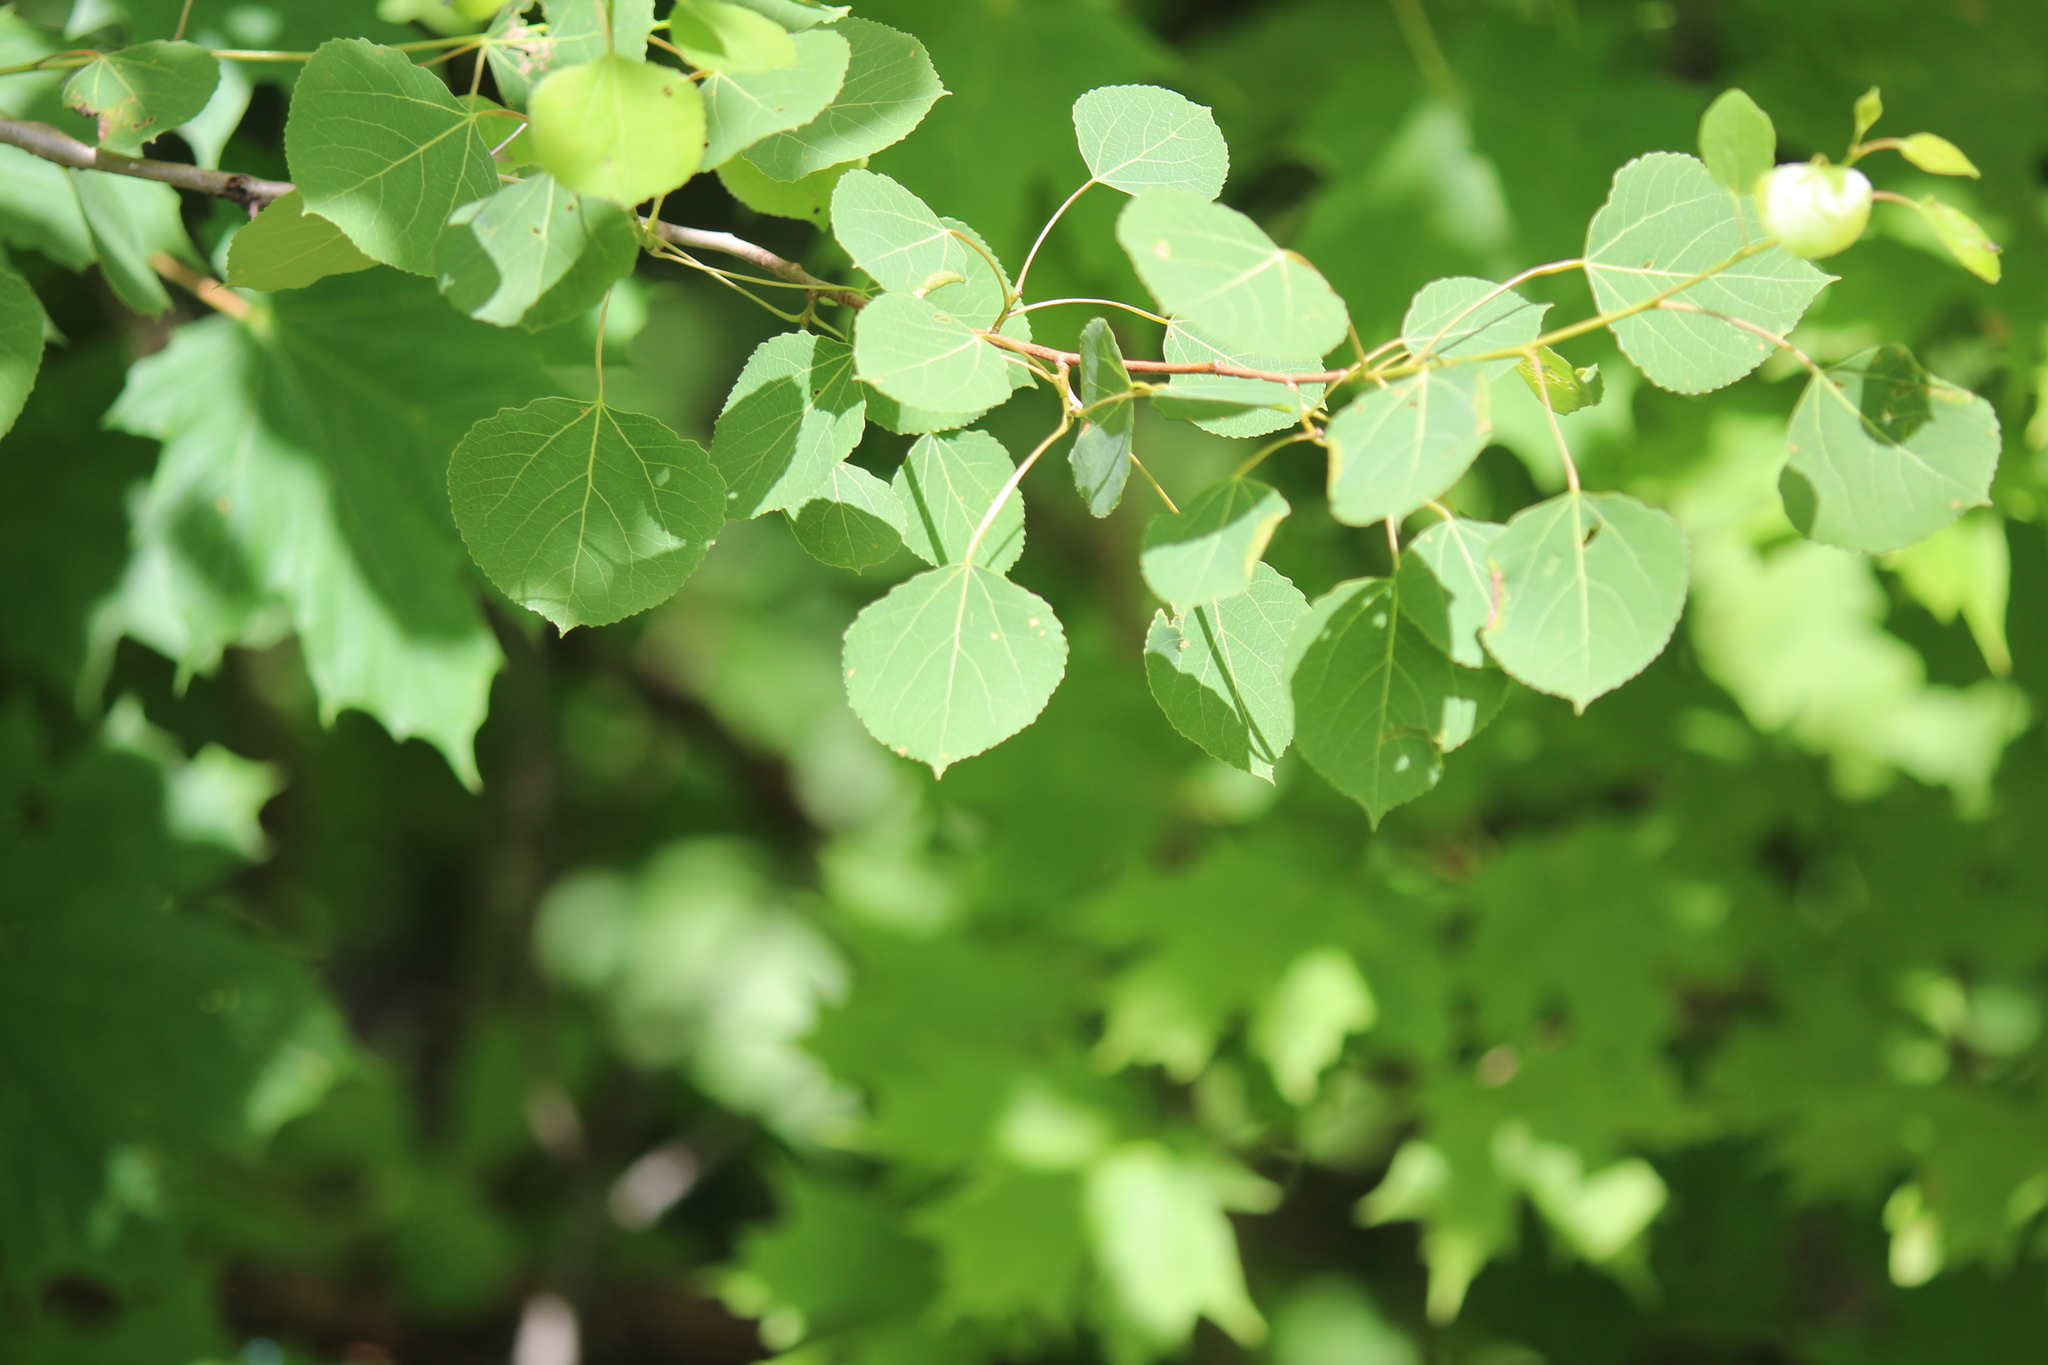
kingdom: Plantae
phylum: Tracheophyta
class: Magnoliopsida
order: Malpighiales
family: Salicaceae
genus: Populus
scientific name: Populus tremuloides
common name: Quaking aspen
